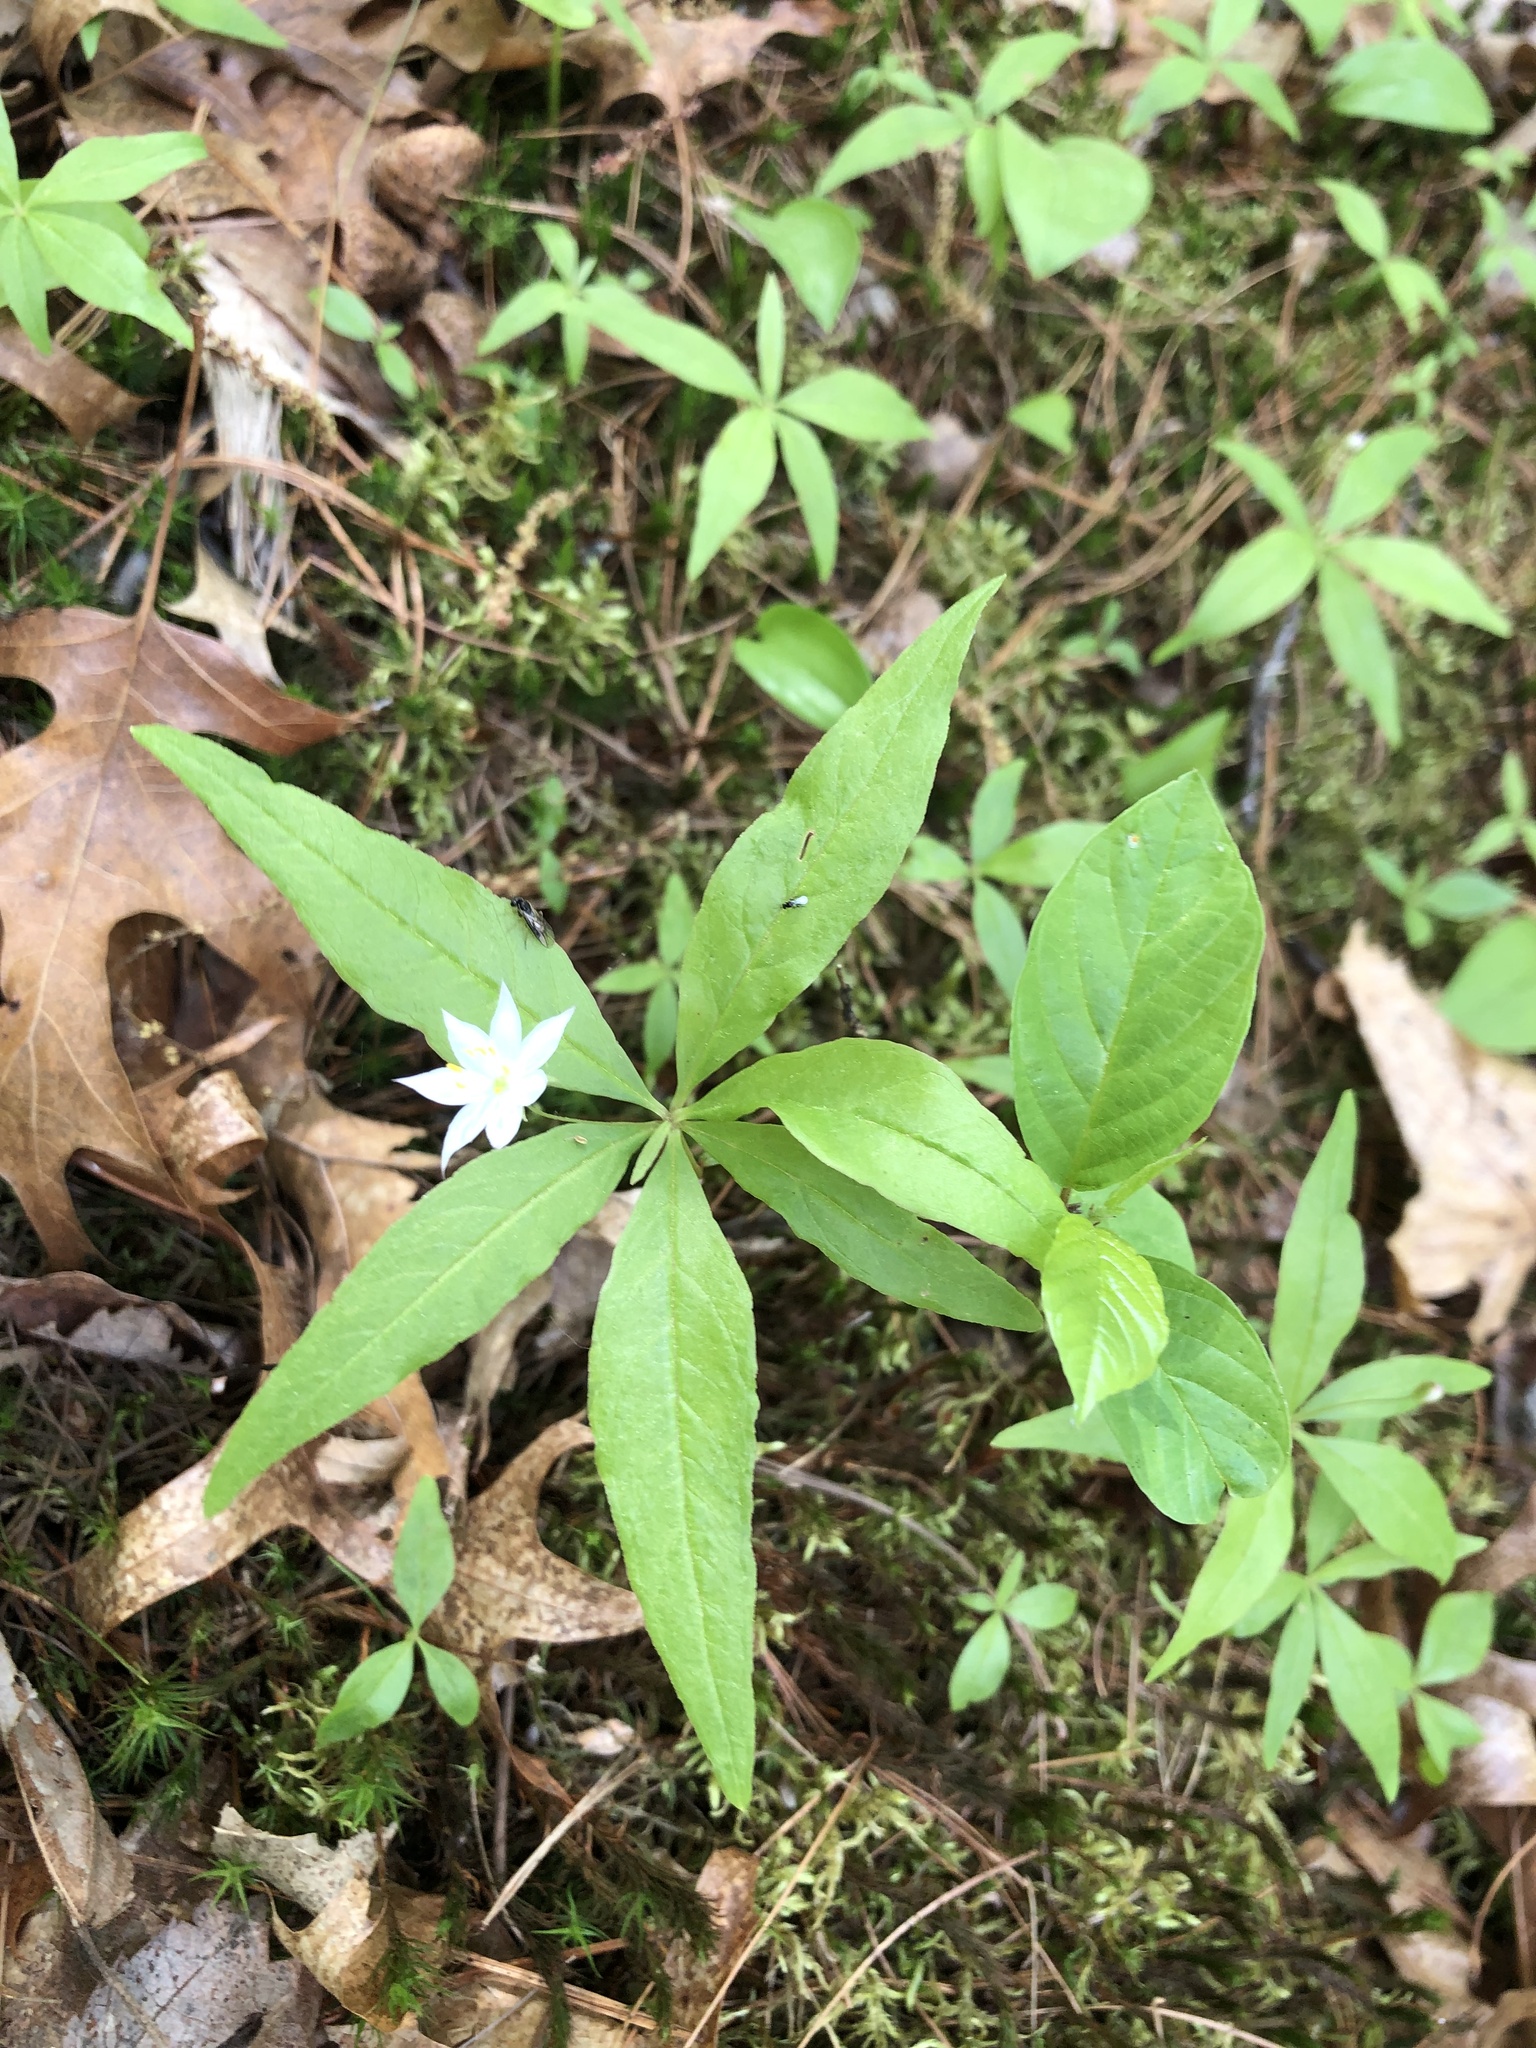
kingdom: Plantae
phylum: Tracheophyta
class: Magnoliopsida
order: Ericales
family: Primulaceae
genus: Lysimachia
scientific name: Lysimachia borealis
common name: American starflower
